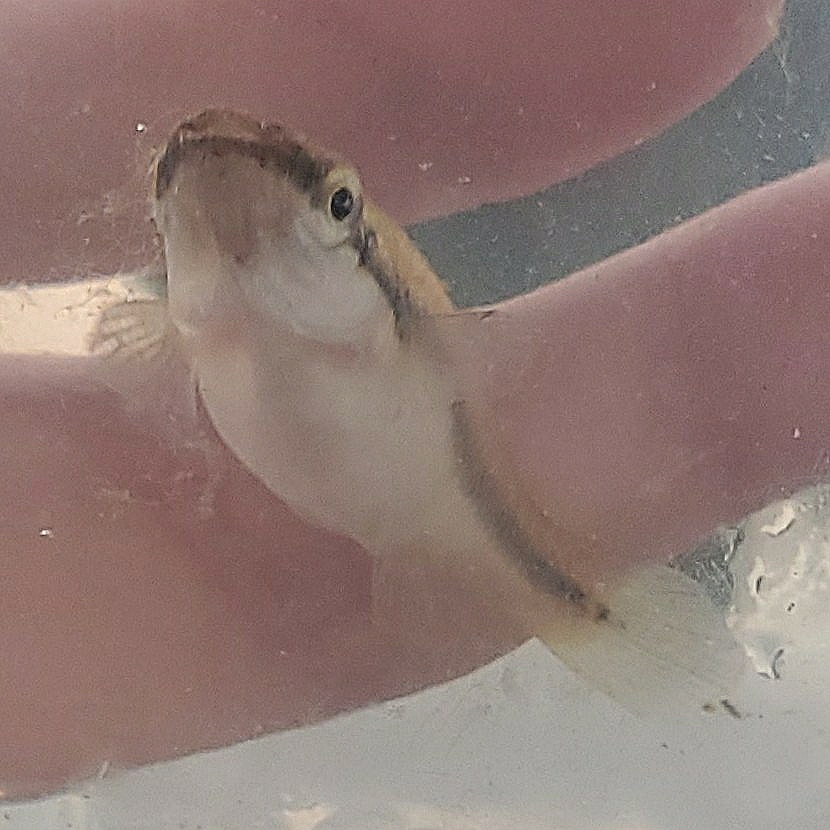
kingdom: Animalia
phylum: Chordata
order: Cyprinodontiformes
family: Fundulidae
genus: Fundulus
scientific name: Fundulus notatus
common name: Blackstripe topminnow
